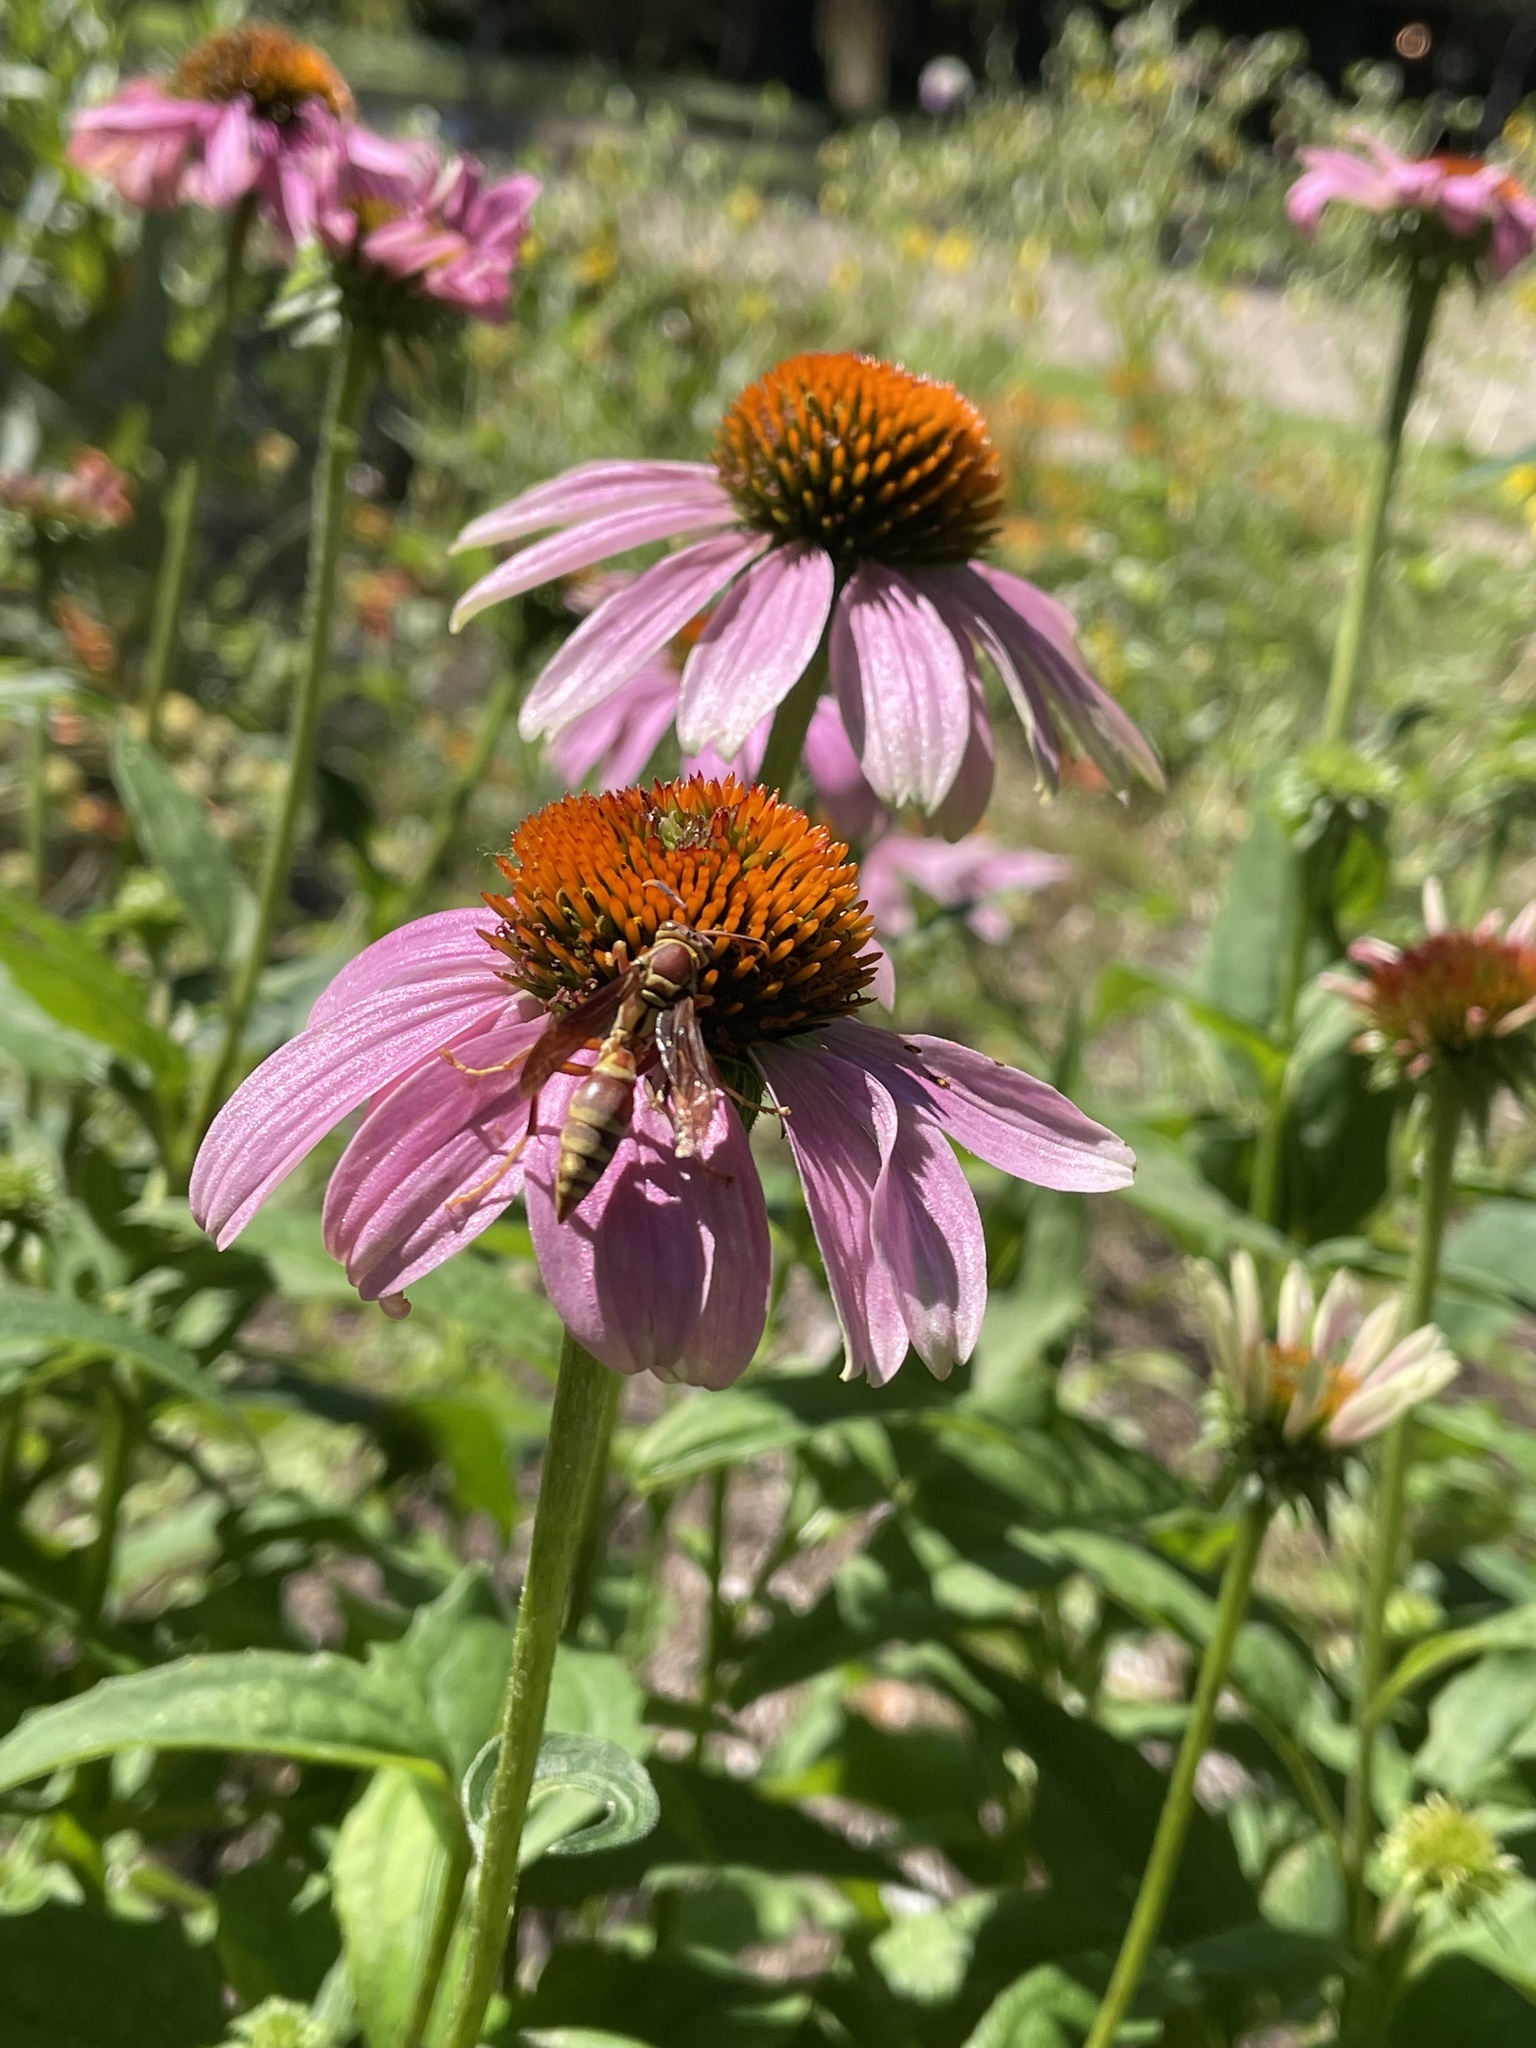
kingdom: Animalia
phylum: Arthropoda
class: Insecta
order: Hymenoptera
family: Eumenidae
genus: Polistes
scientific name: Polistes exclamans
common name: Paper wasp
